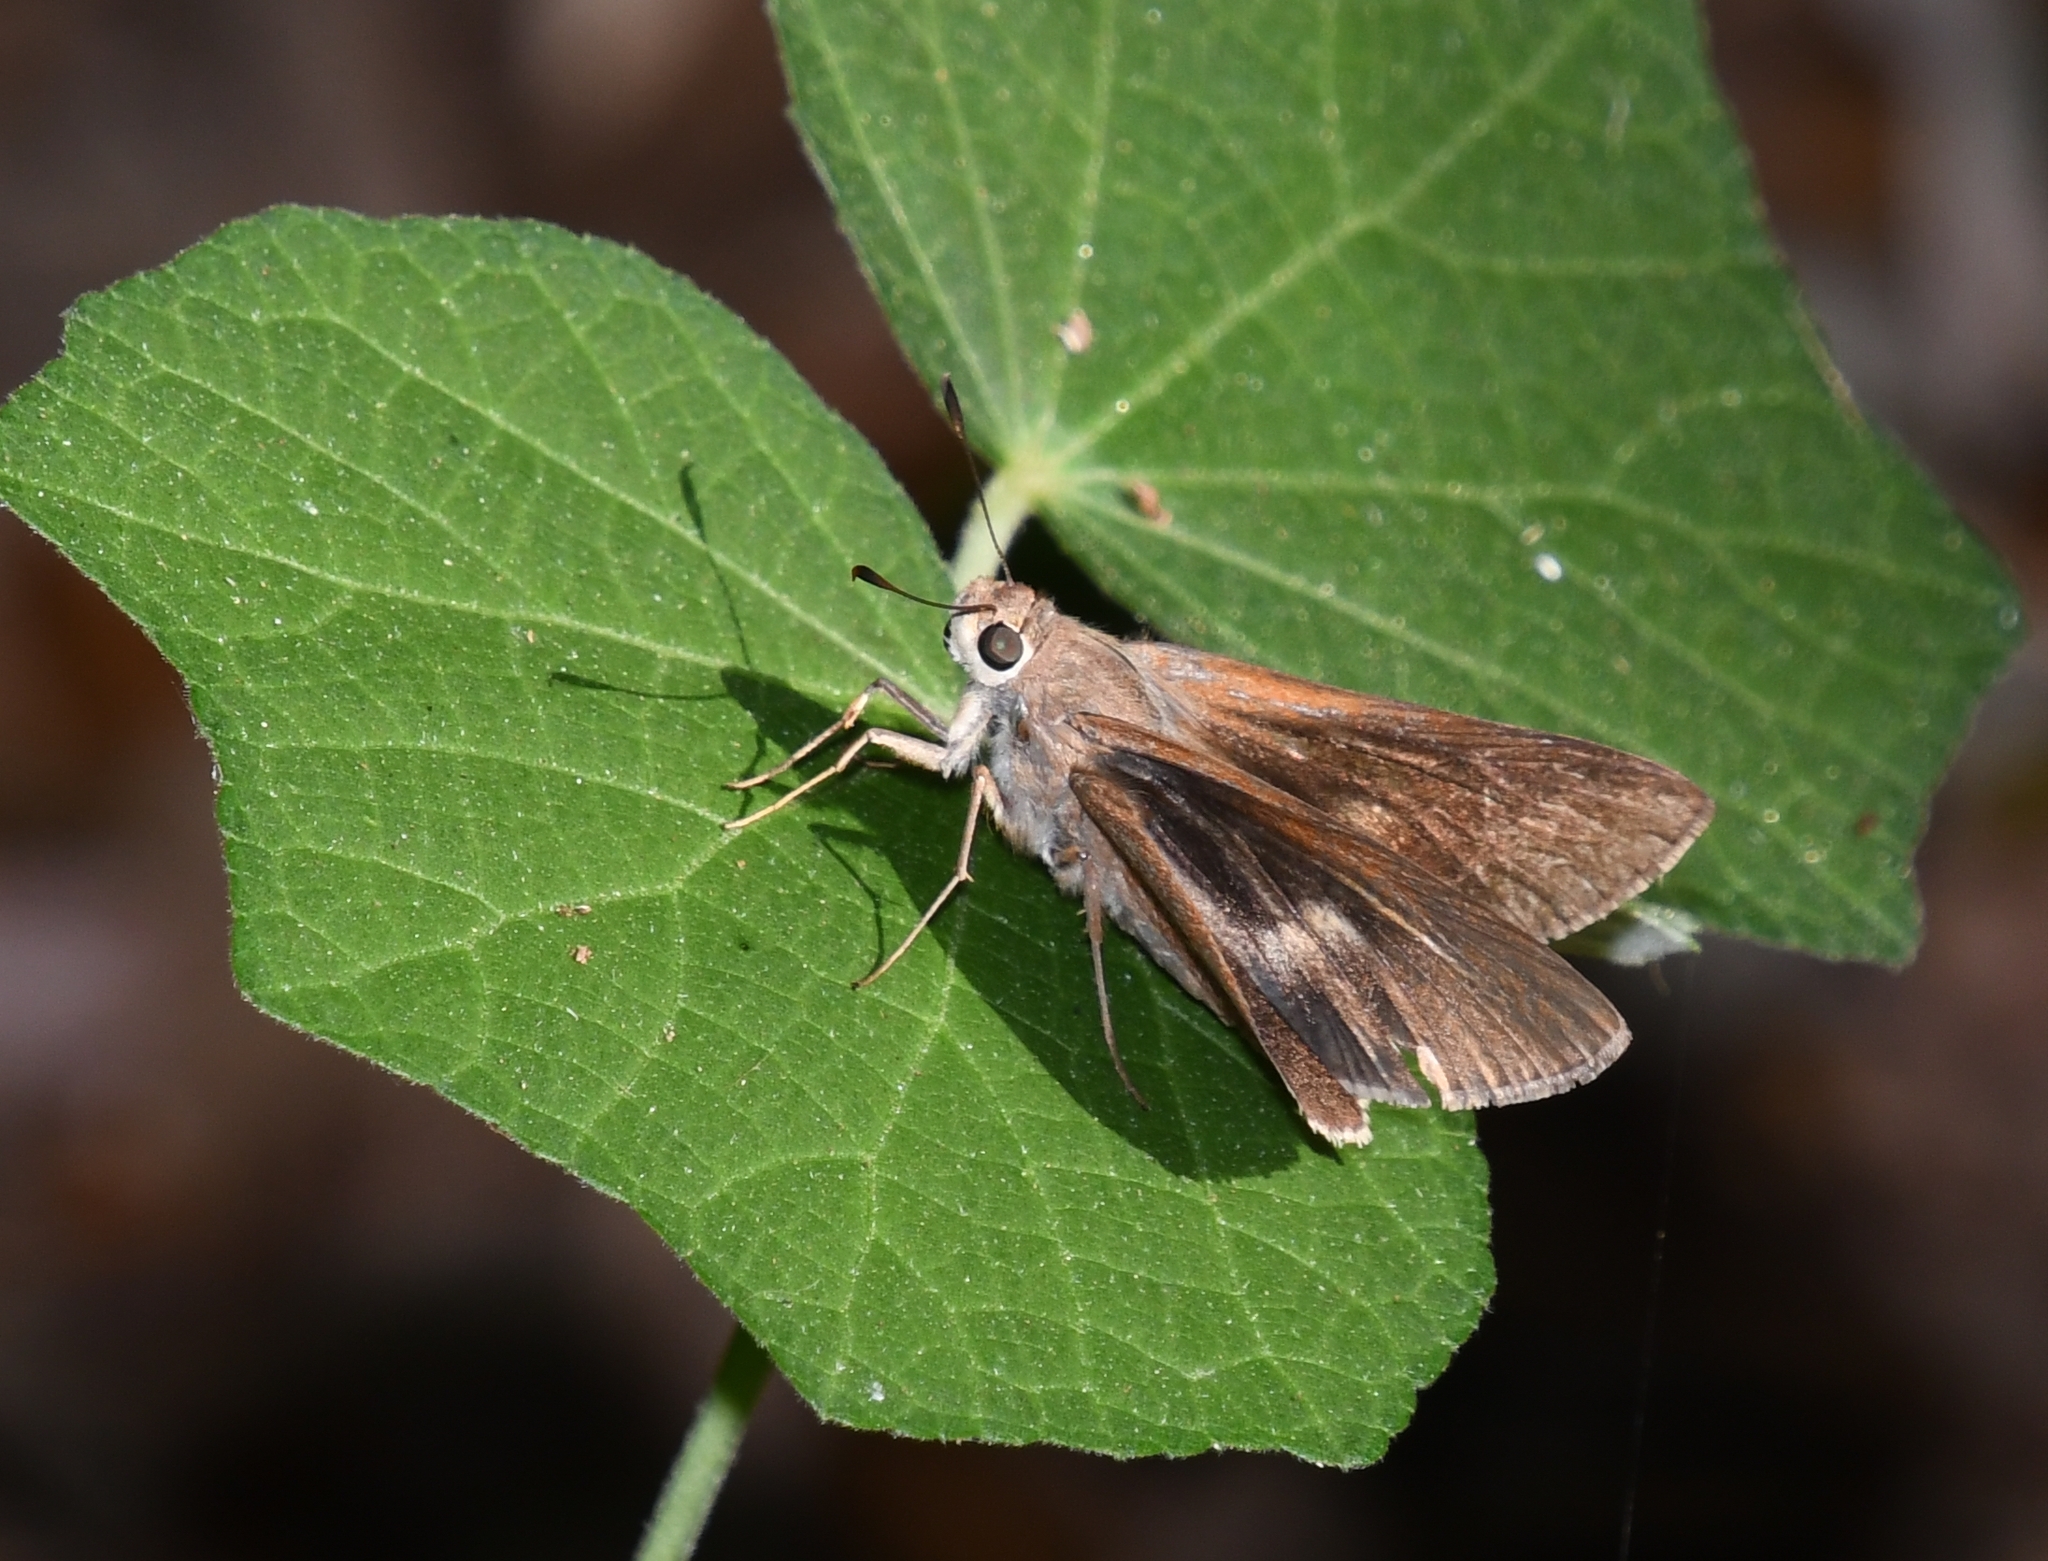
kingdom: Animalia
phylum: Arthropoda
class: Insecta
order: Lepidoptera
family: Hesperiidae
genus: Asbolis
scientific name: Asbolis capucinus
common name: Monk skipper
